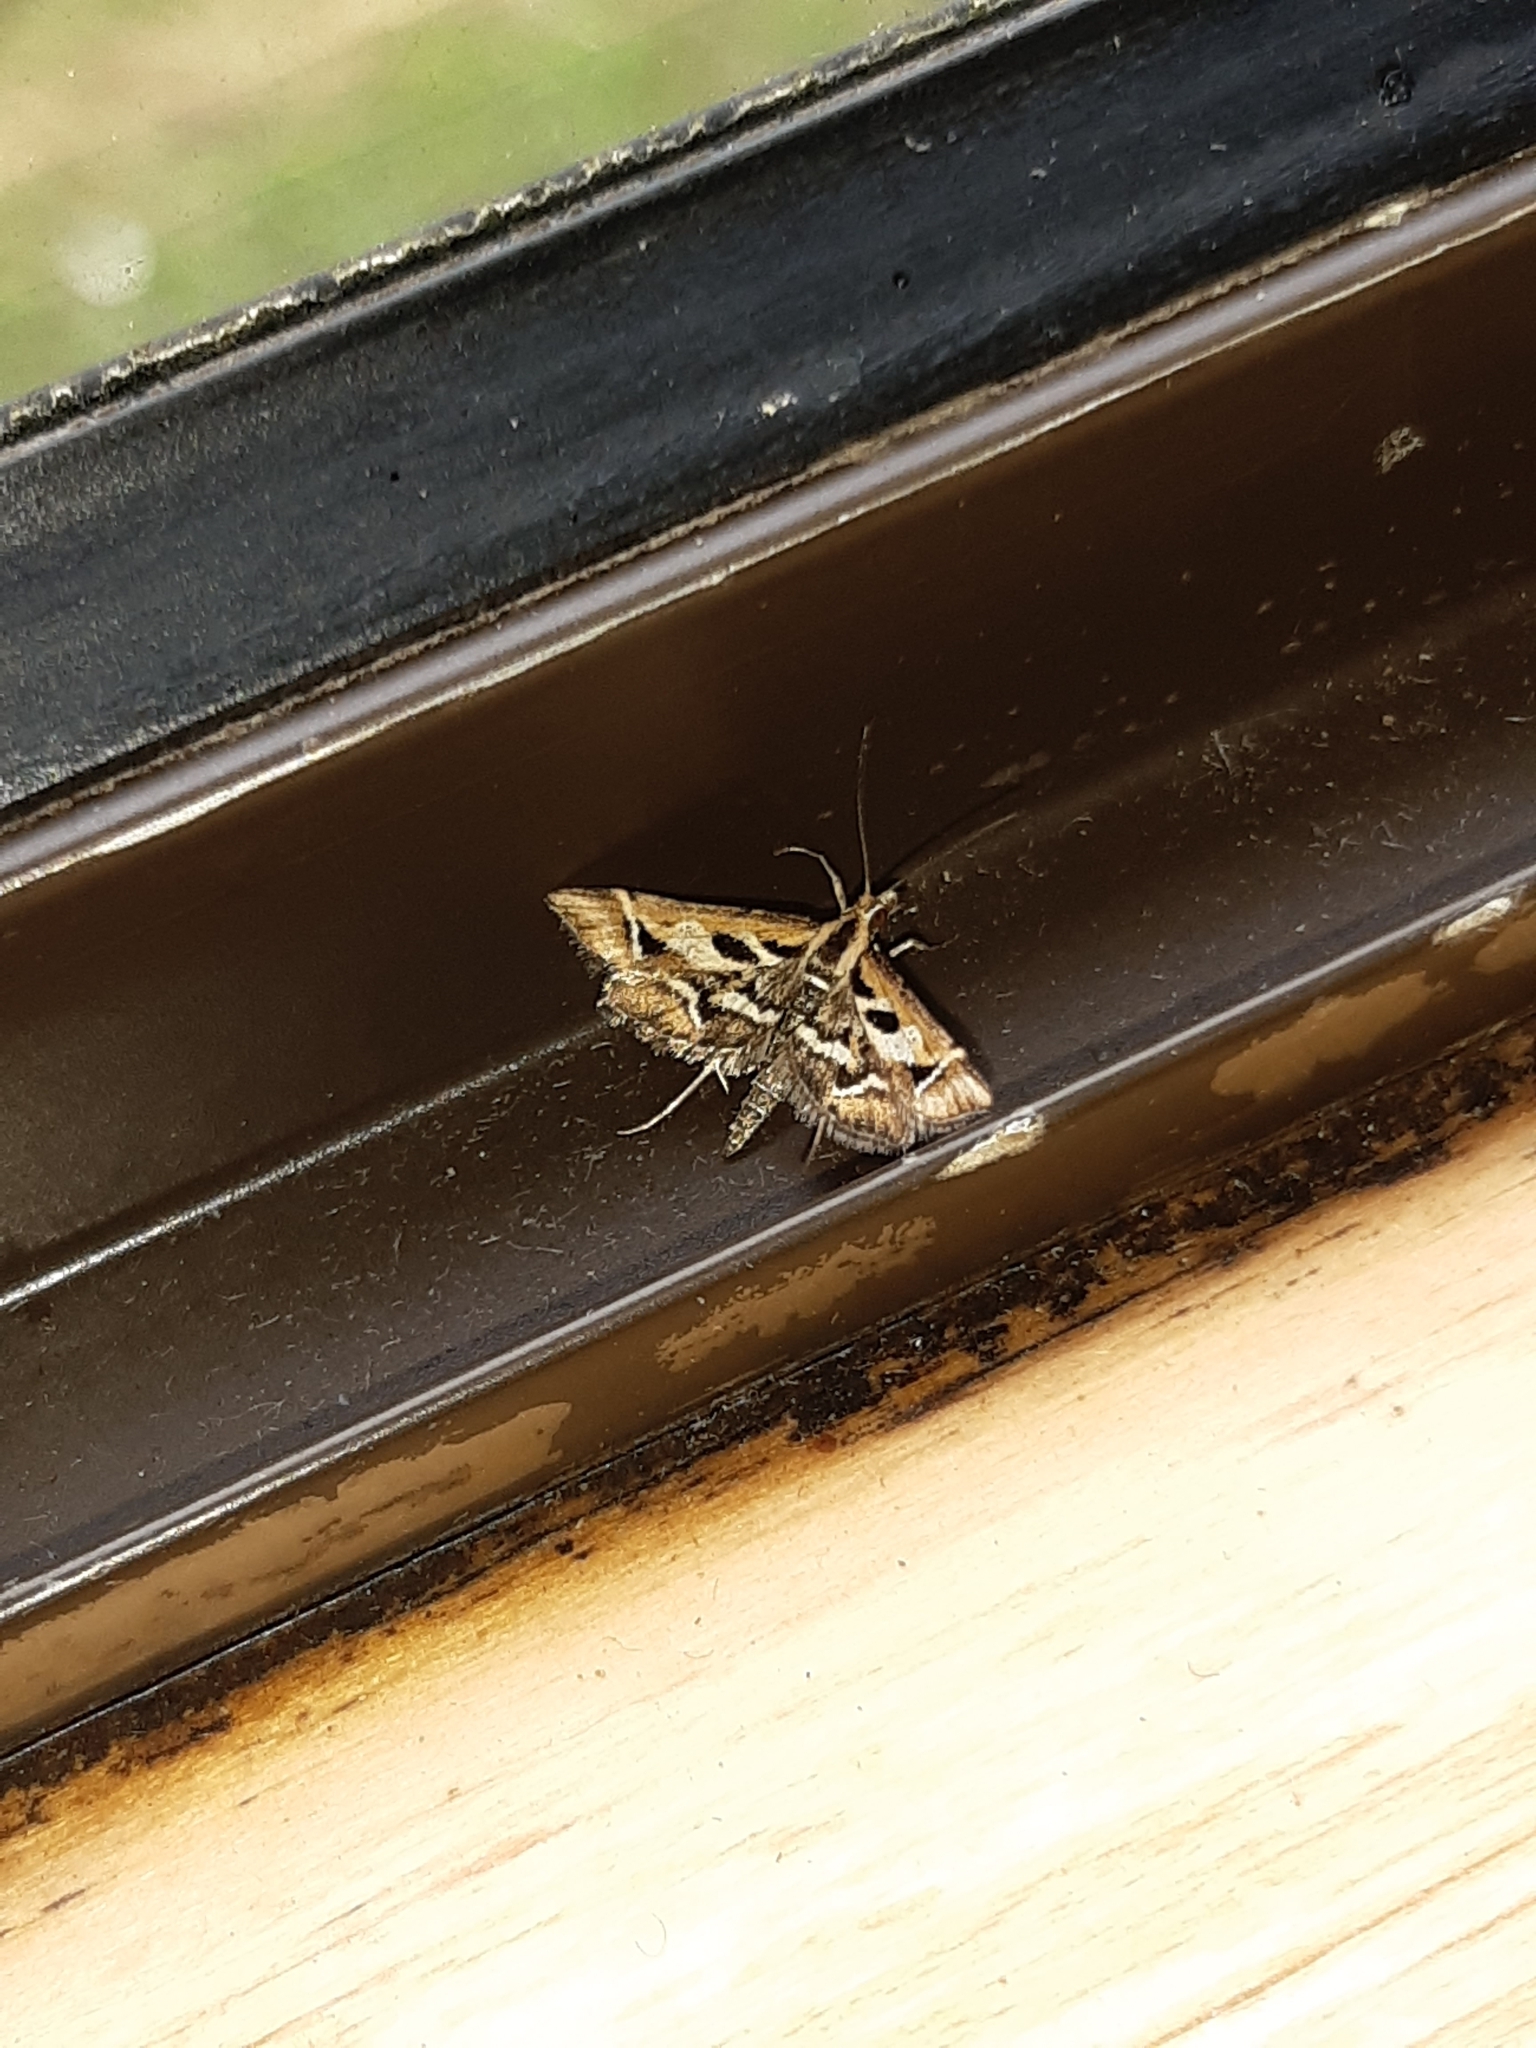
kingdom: Animalia
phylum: Arthropoda
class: Insecta
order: Lepidoptera
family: Crambidae
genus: Diasemia
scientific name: Diasemia grammalis
